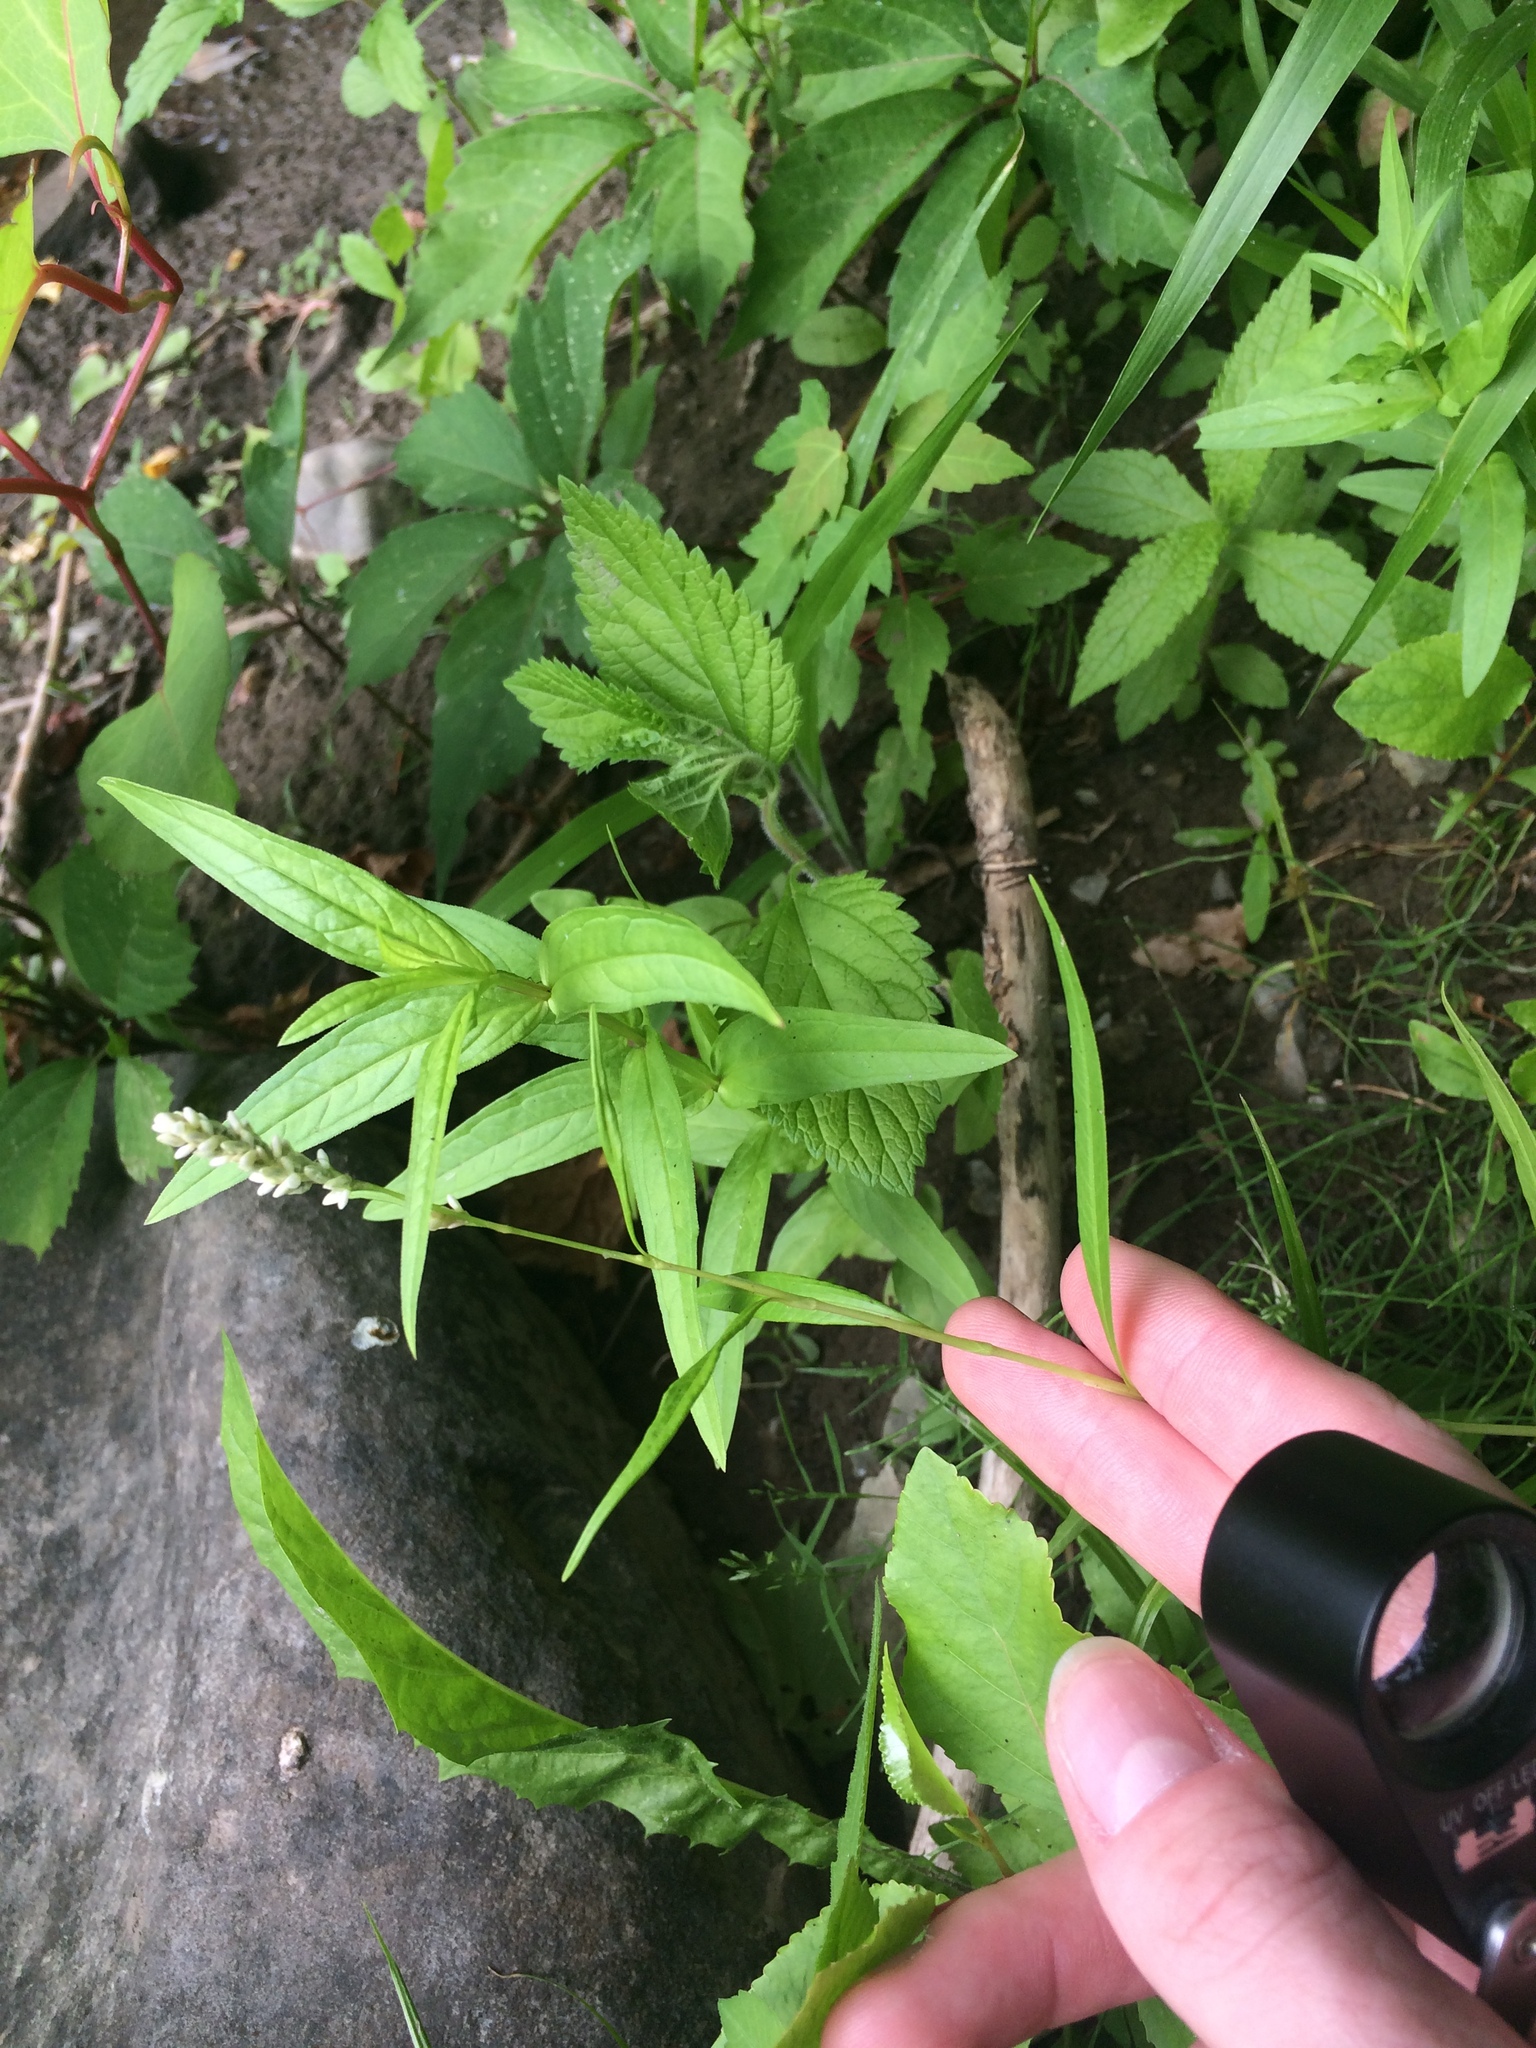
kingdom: Plantae
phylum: Tracheophyta
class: Magnoliopsida
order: Caryophyllales
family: Polygonaceae
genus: Persicaria
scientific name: Persicaria lapathifolia
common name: Curlytop knotweed
